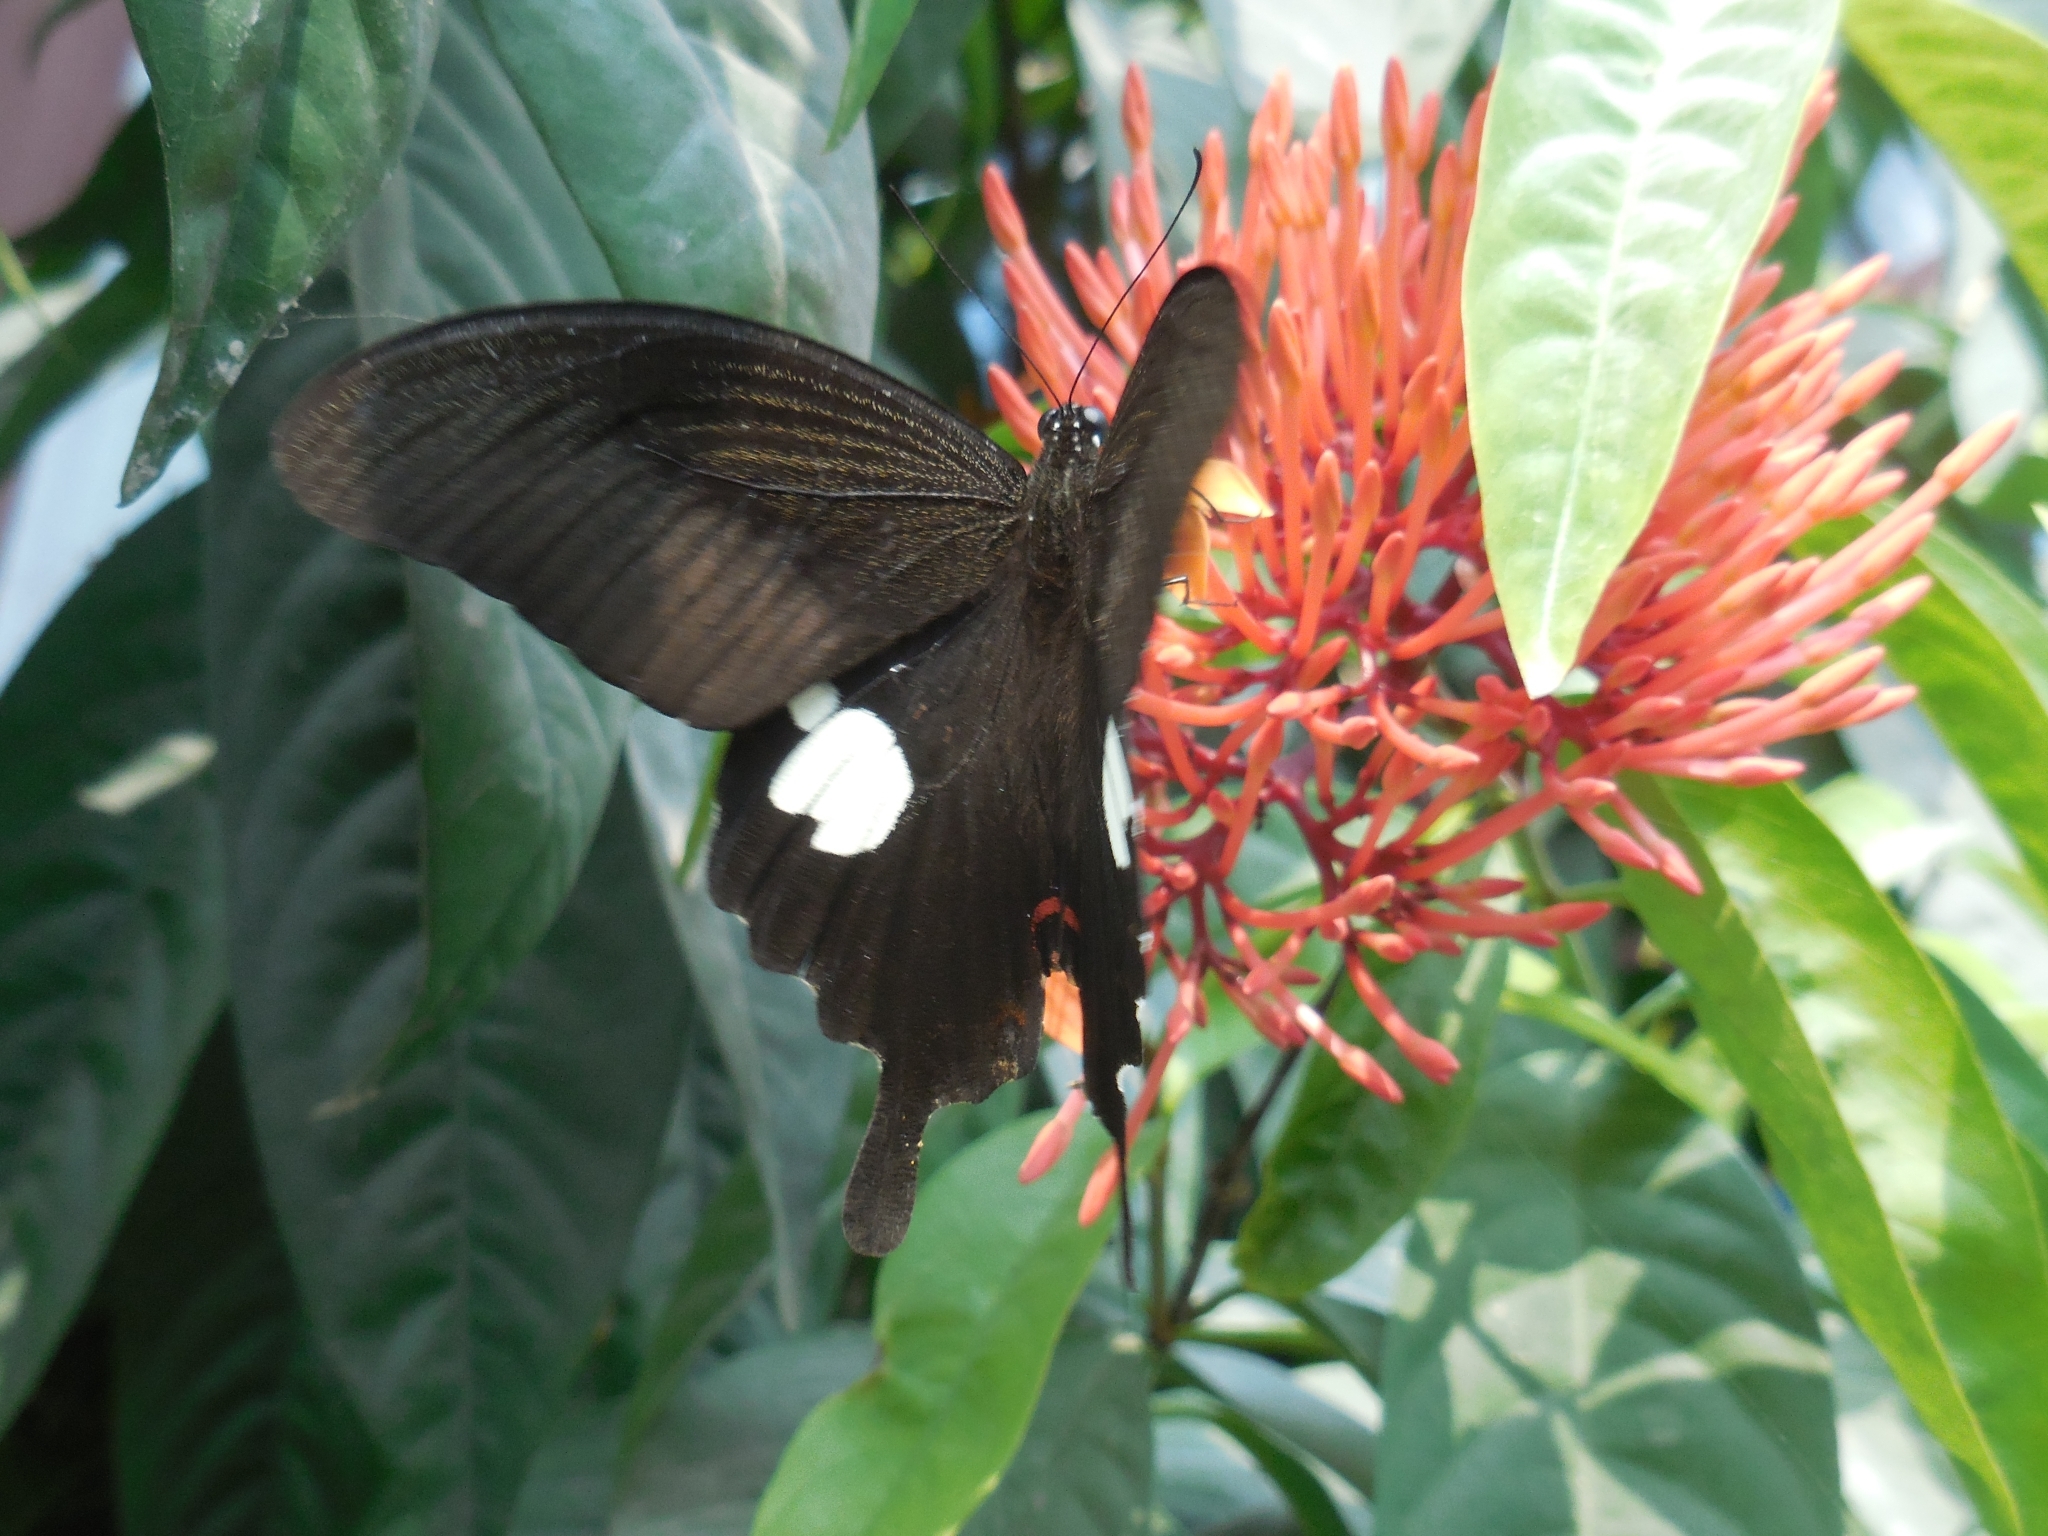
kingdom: Animalia
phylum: Arthropoda
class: Insecta
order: Lepidoptera
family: Papilionidae
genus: Papilio
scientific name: Papilio helenus
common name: Red helen
